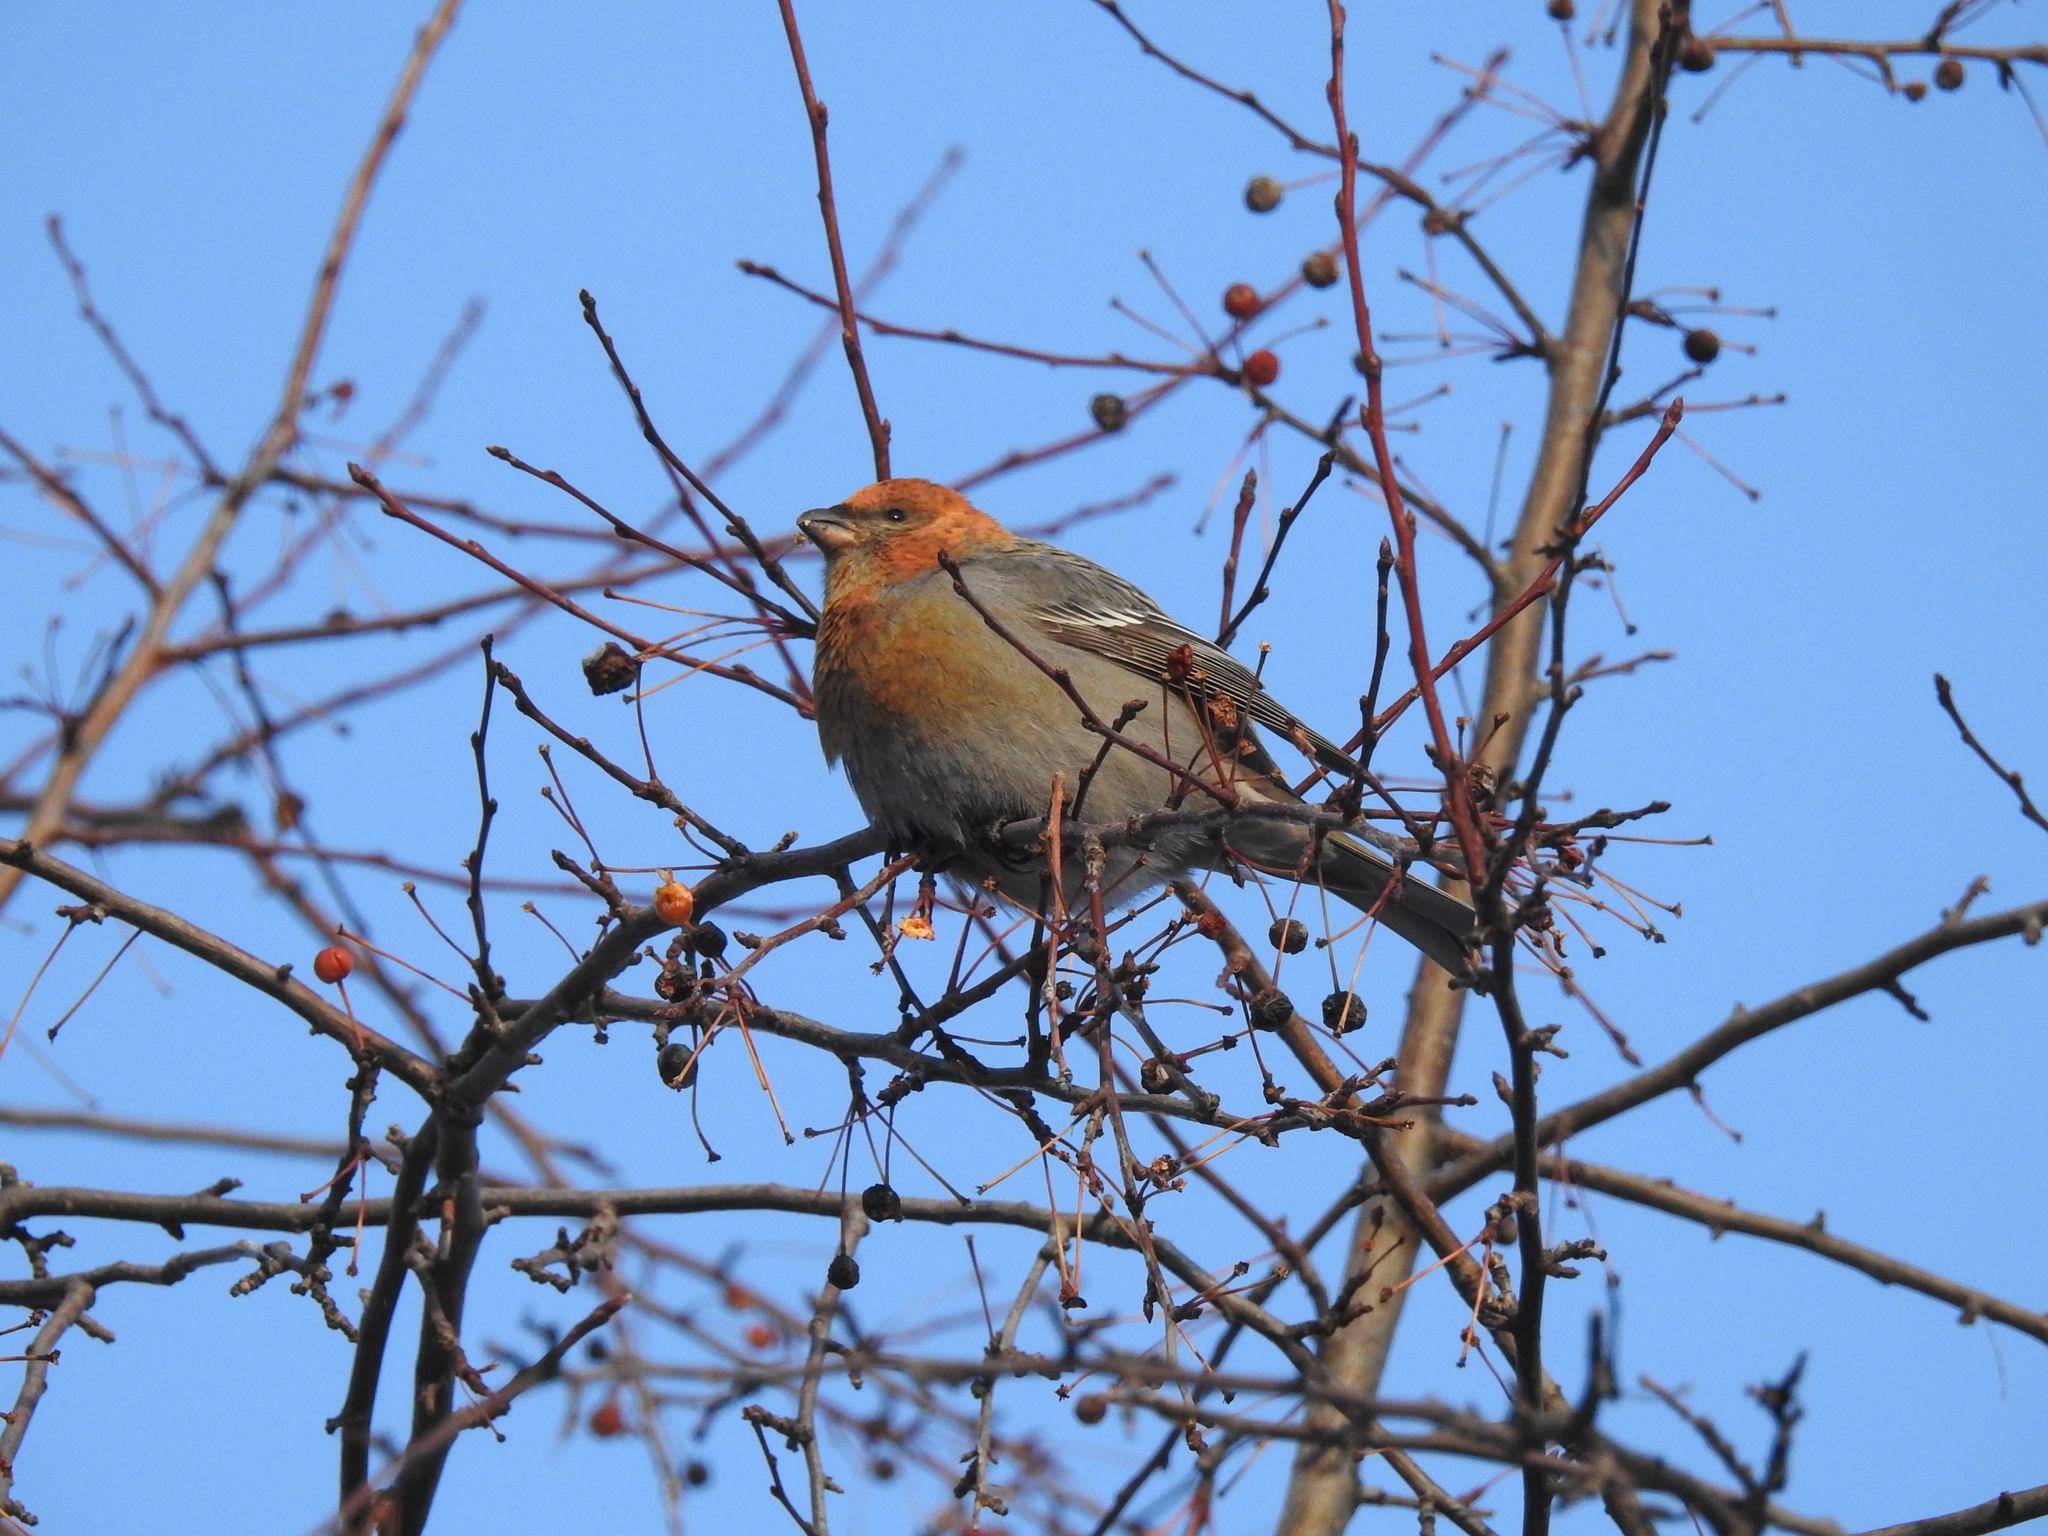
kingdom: Animalia
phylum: Chordata
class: Aves
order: Passeriformes
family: Fringillidae
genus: Pinicola
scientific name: Pinicola enucleator
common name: Pine grosbeak
